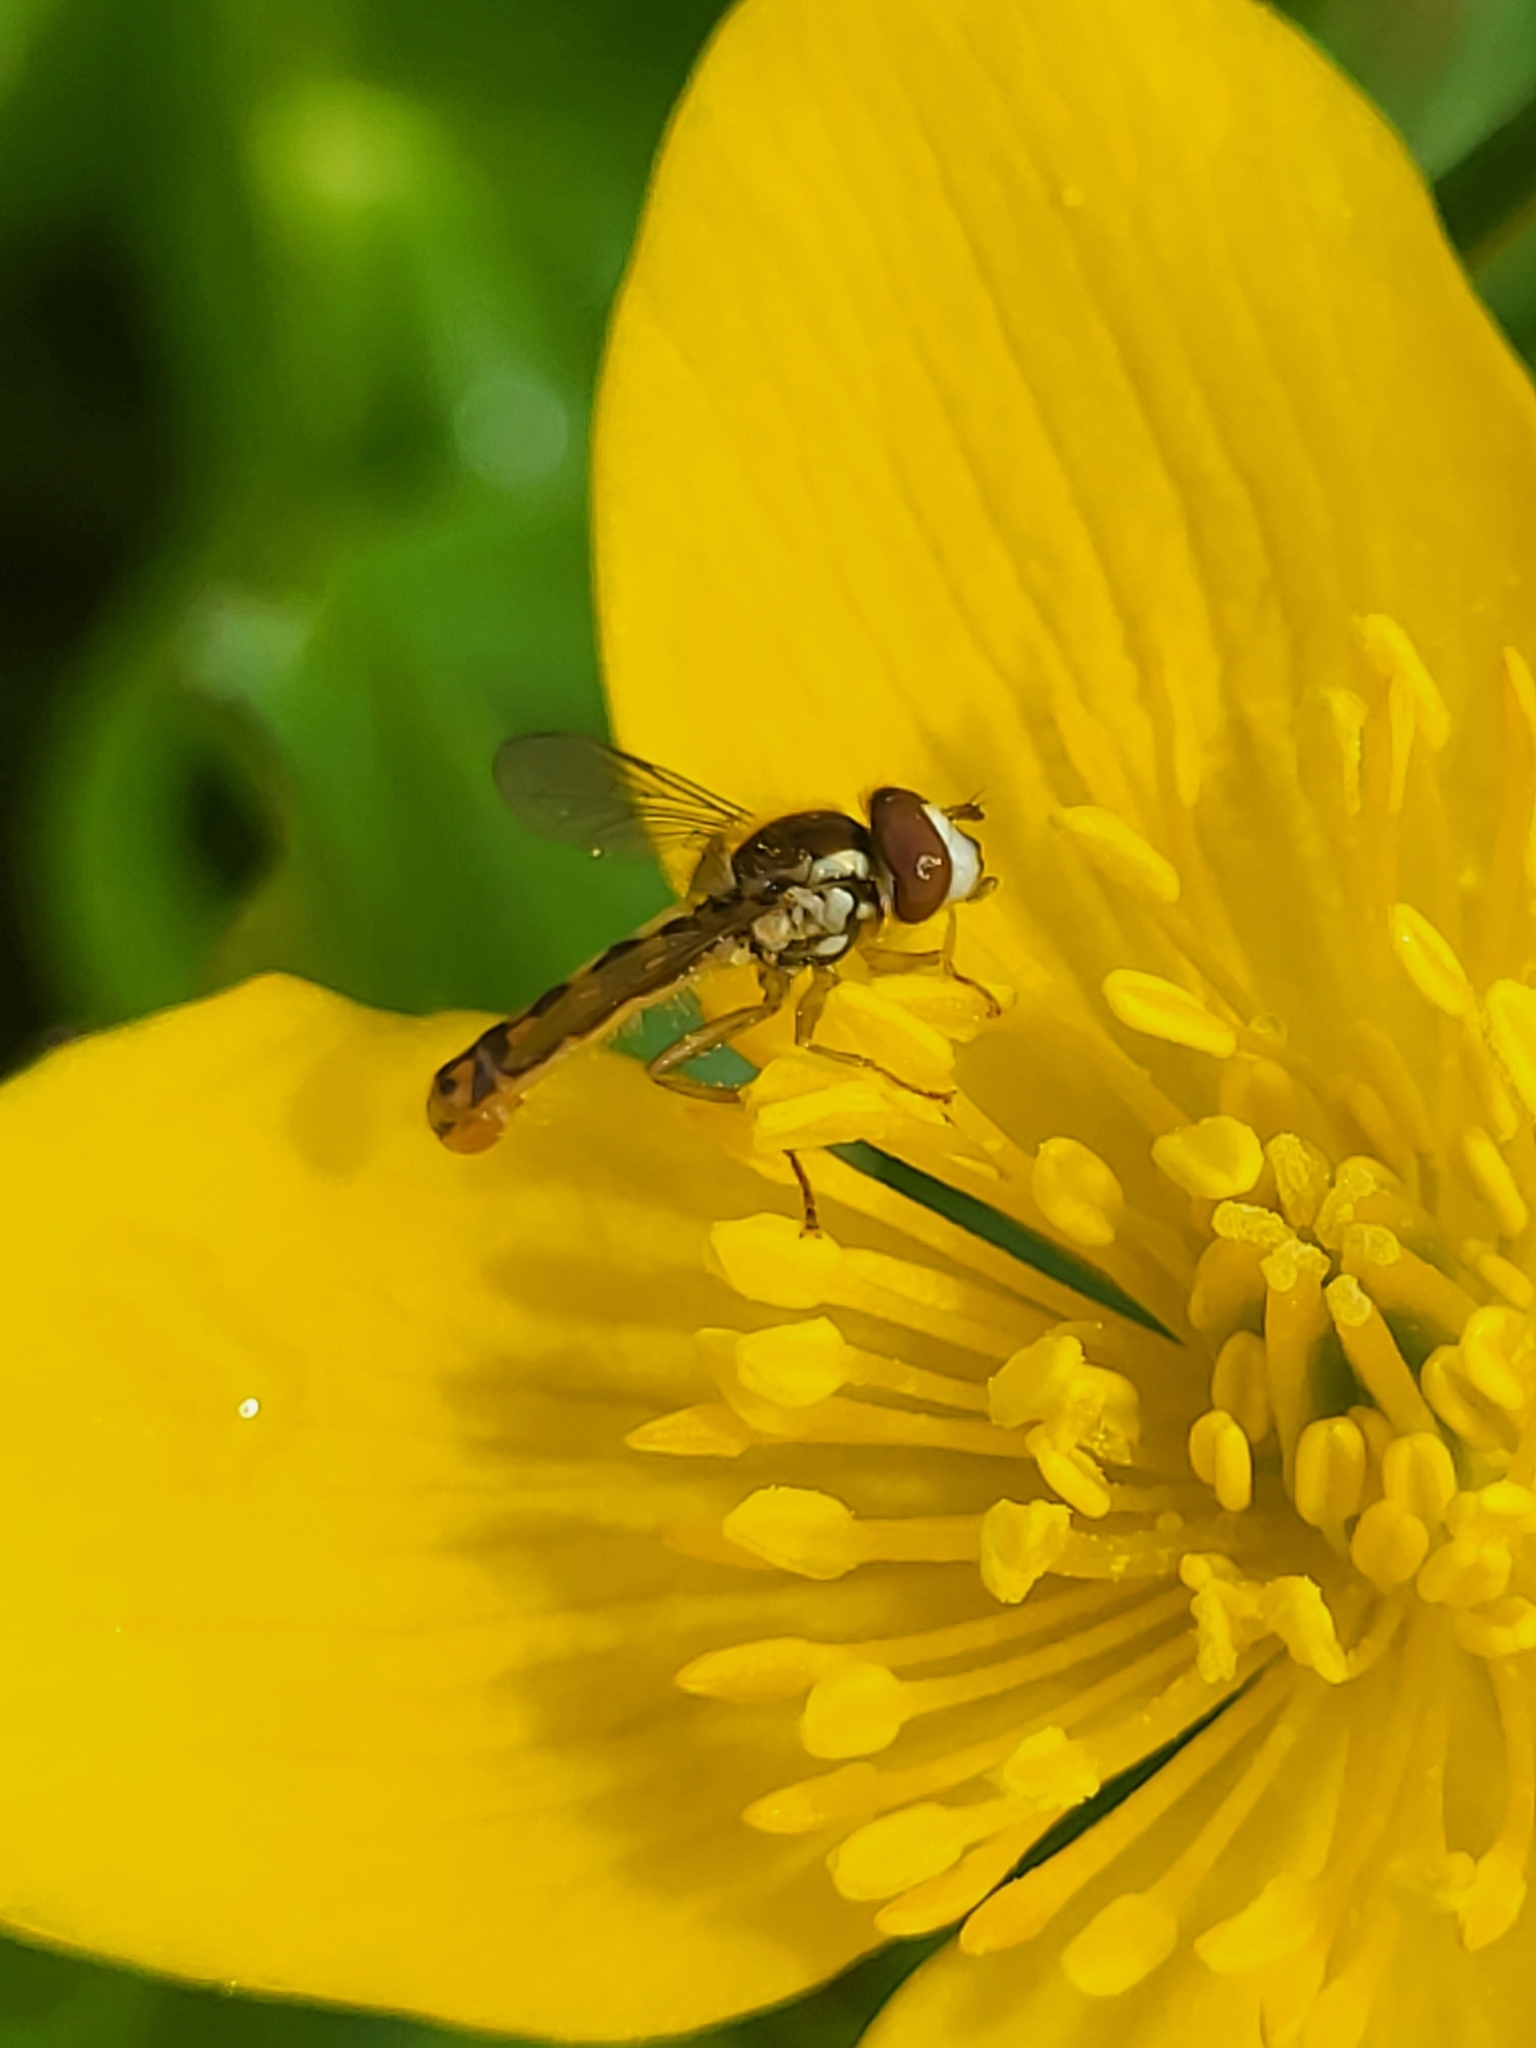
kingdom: Animalia
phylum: Arthropoda
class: Insecta
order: Diptera
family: Syrphidae
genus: Sphaerophoria
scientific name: Sphaerophoria
